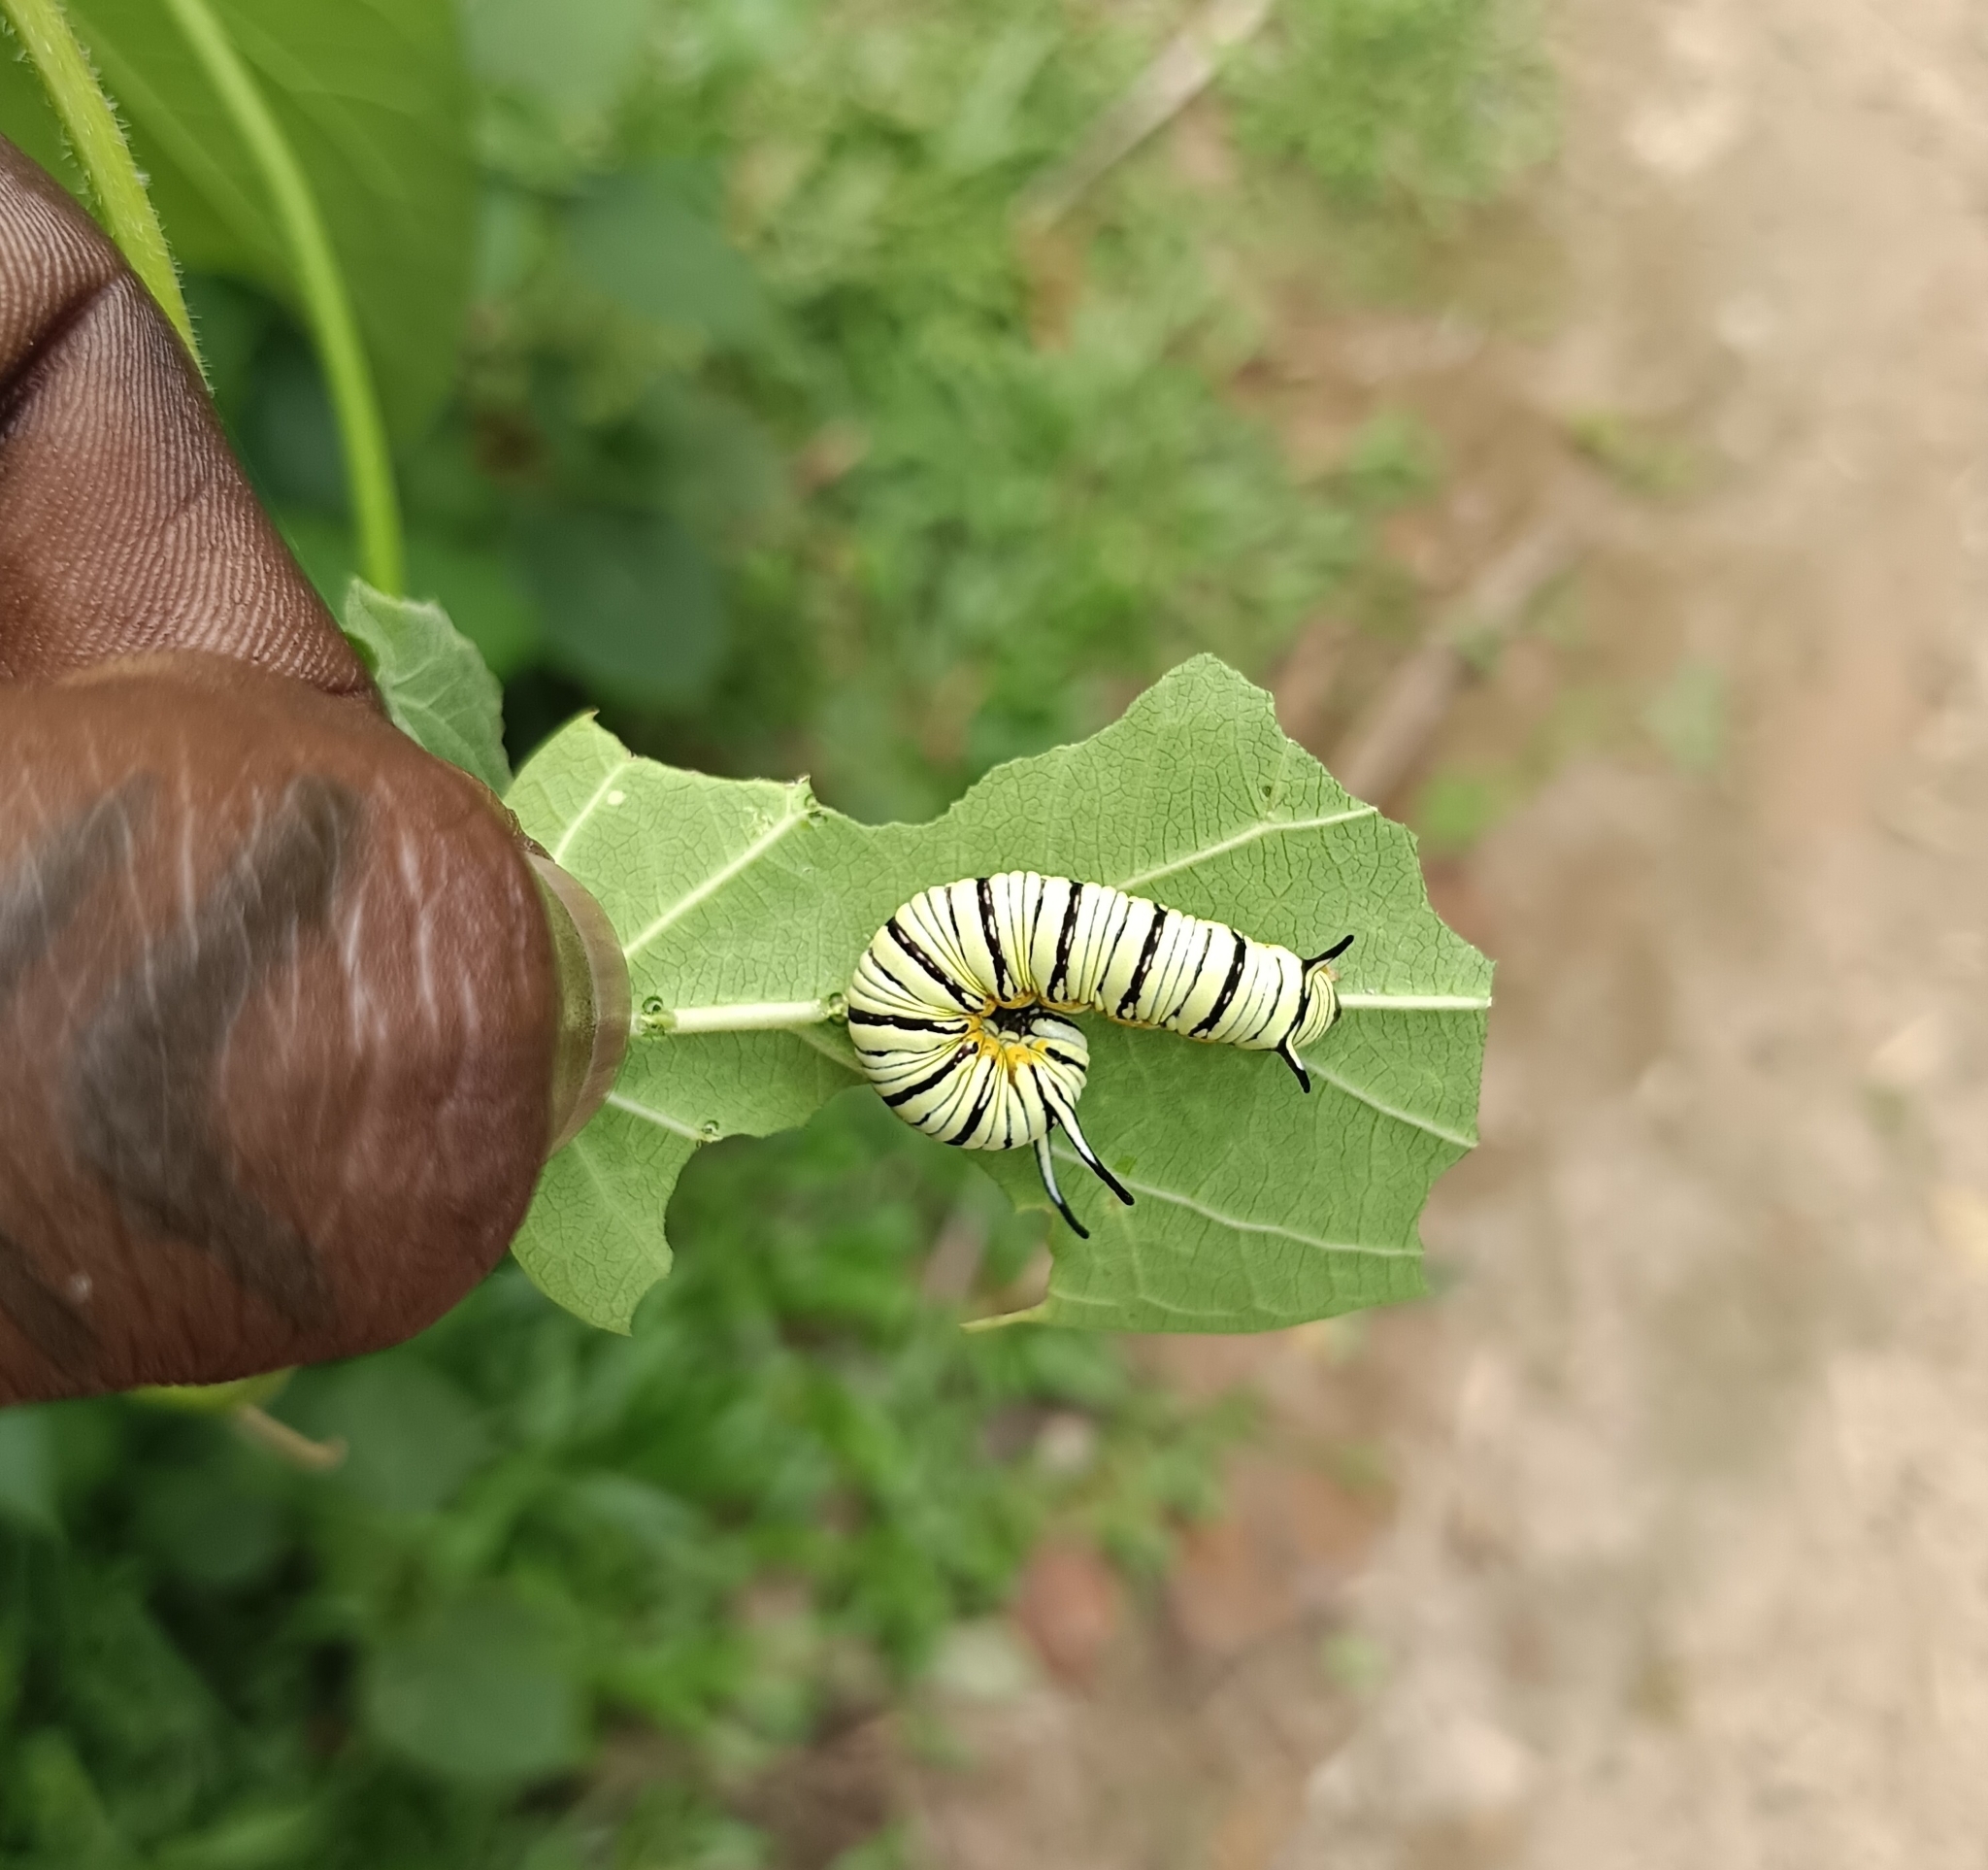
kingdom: Animalia
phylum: Arthropoda
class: Insecta
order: Lepidoptera
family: Nymphalidae
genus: Tirumala
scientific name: Tirumala limniace
